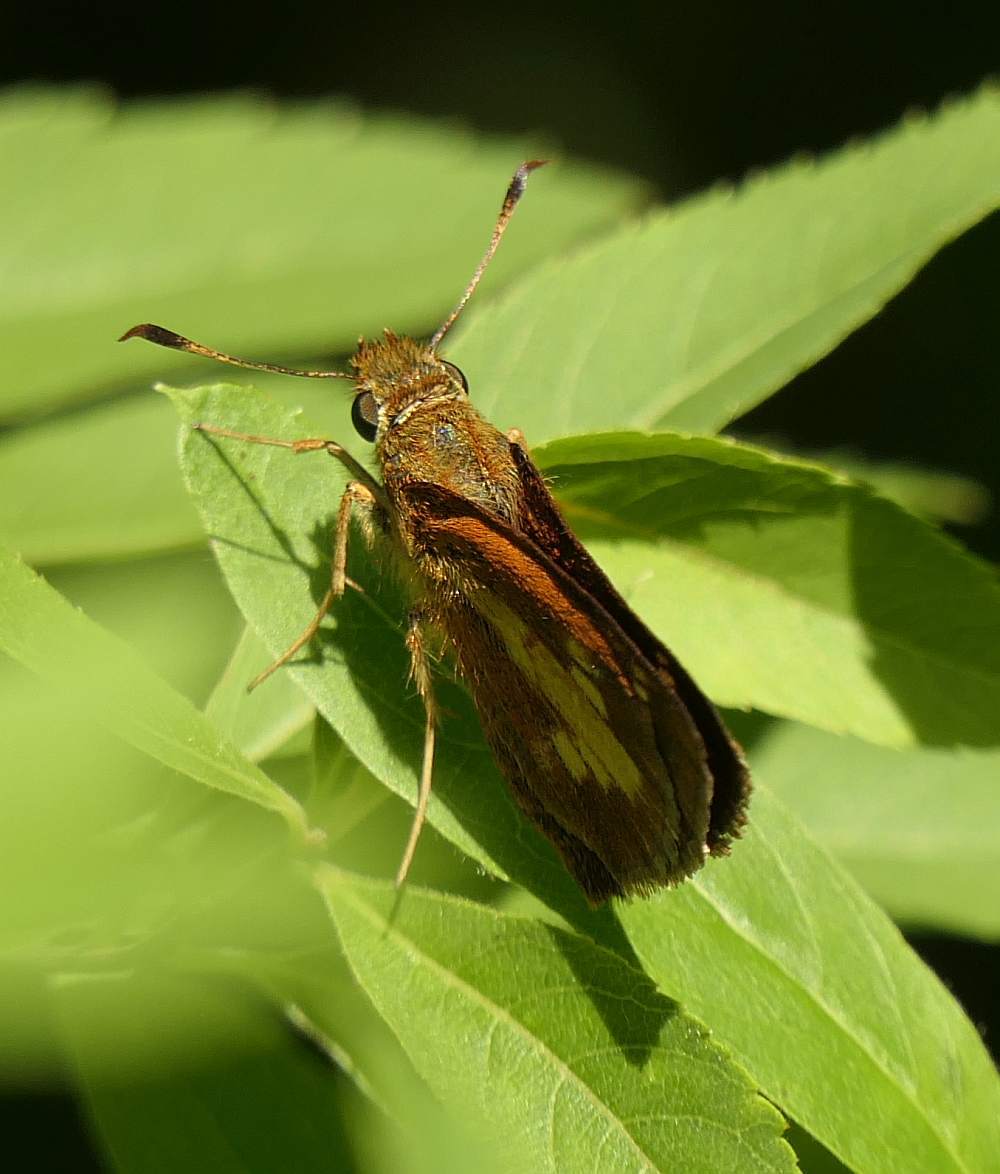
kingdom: Animalia
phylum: Arthropoda
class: Insecta
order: Lepidoptera
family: Hesperiidae
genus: Poanes
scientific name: Poanes massasoit
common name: Mulberrywing
